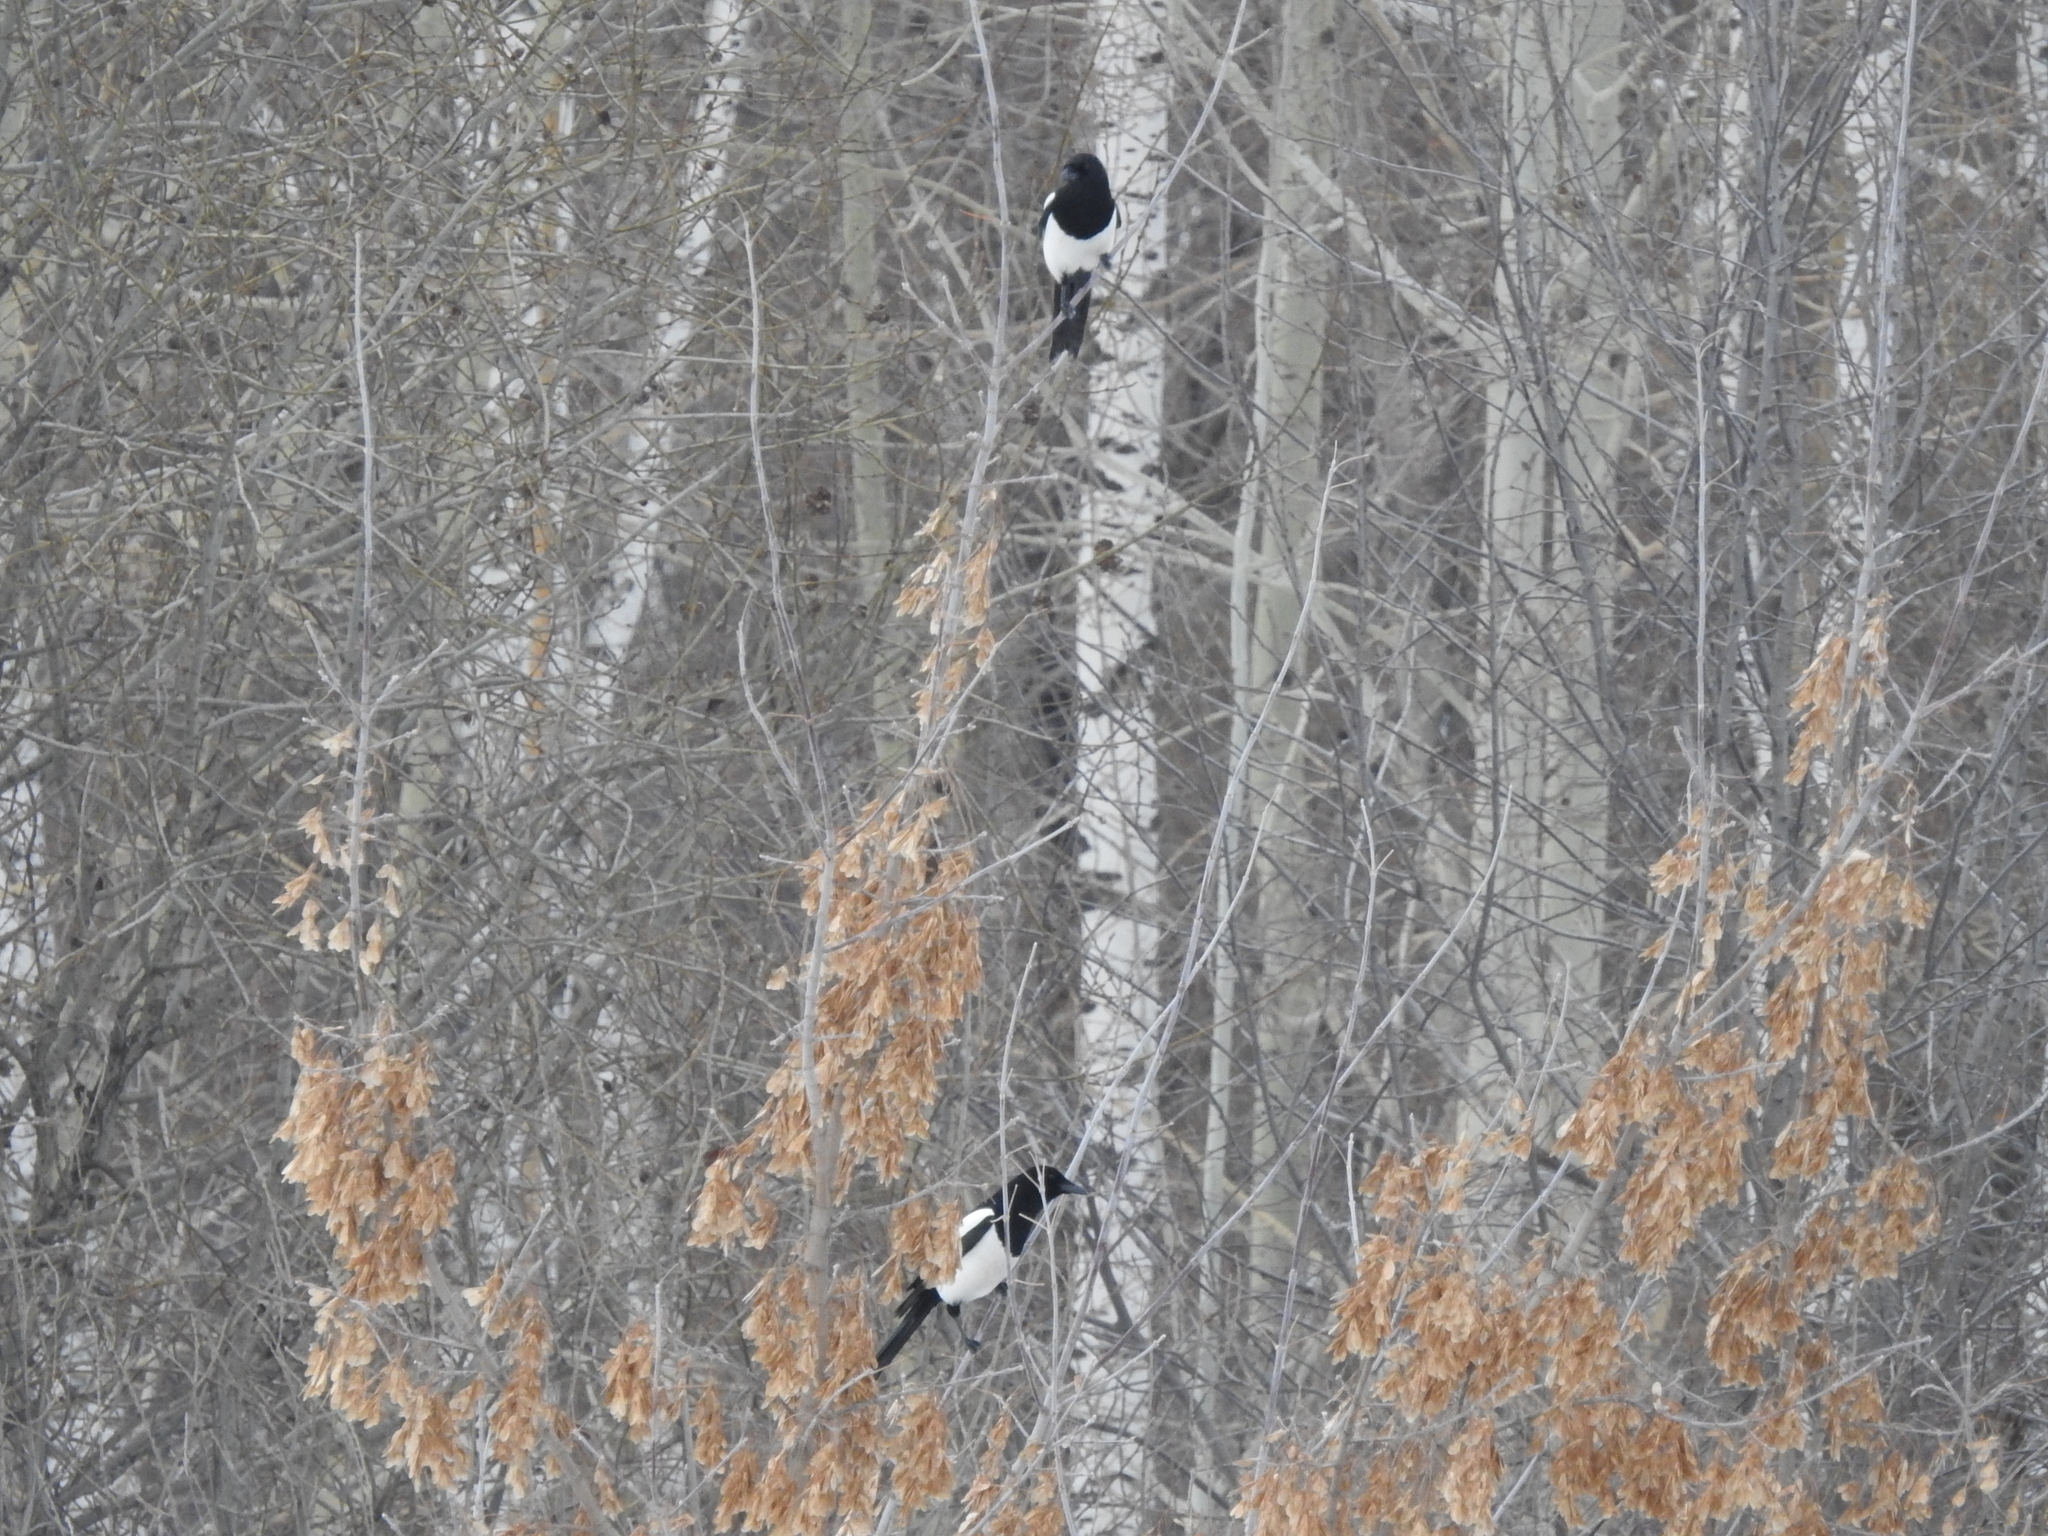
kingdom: Animalia
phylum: Chordata
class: Aves
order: Passeriformes
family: Corvidae
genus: Pica
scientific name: Pica pica
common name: Eurasian magpie
